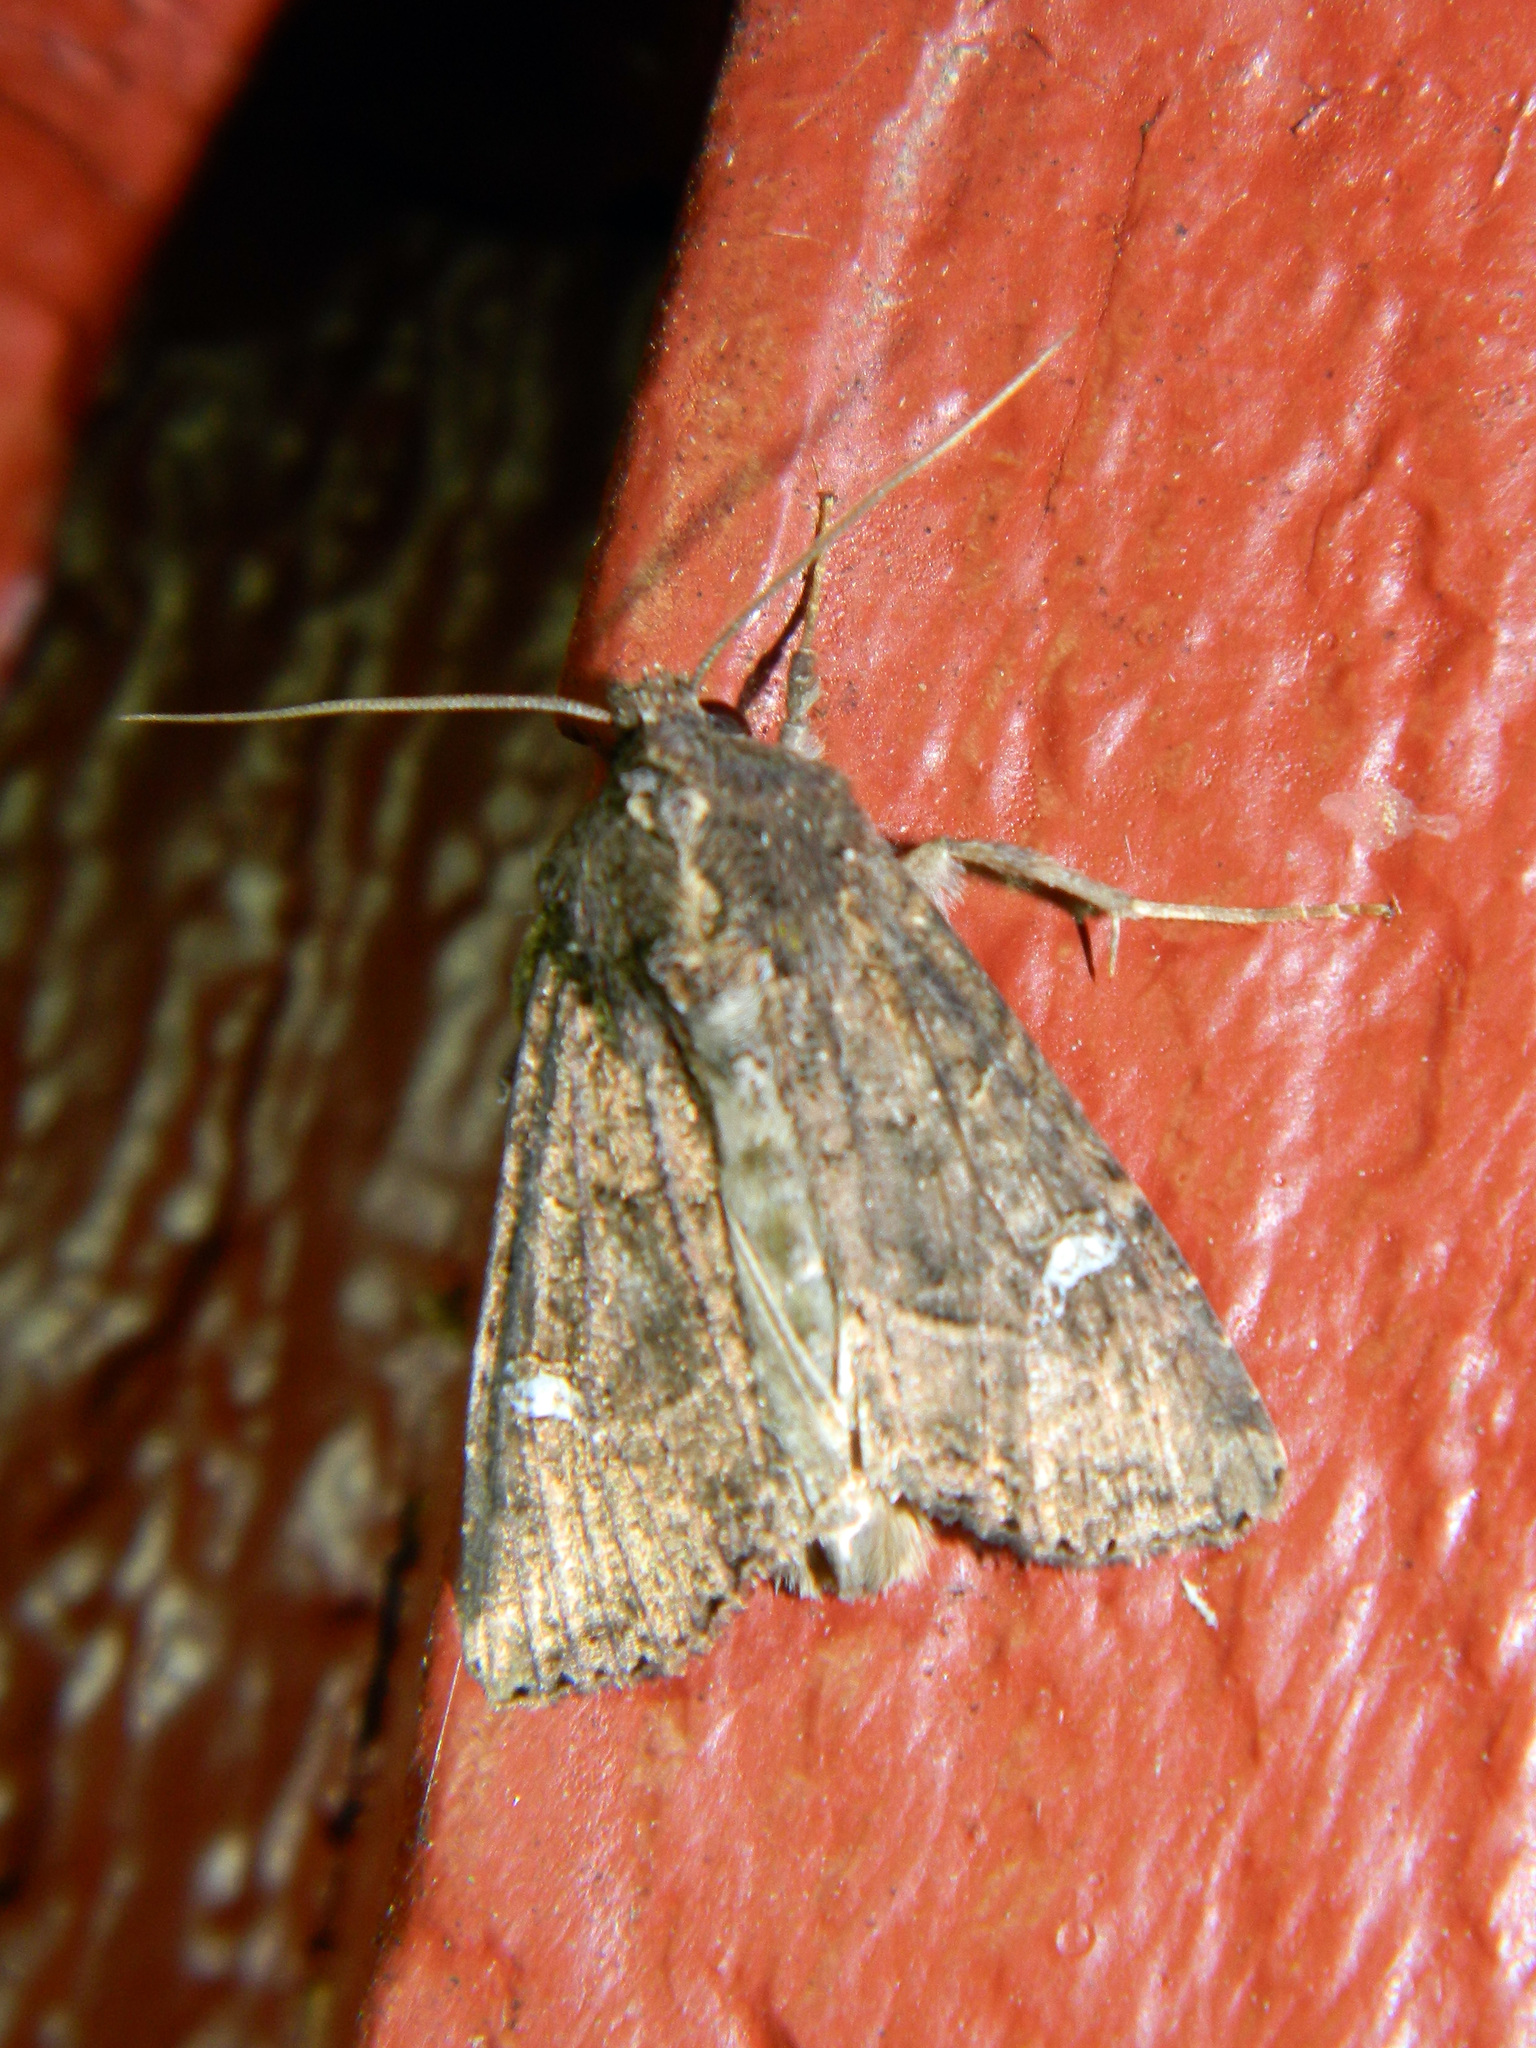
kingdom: Animalia
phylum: Arthropoda
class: Insecta
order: Lepidoptera
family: Noctuidae
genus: Helotropha
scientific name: Helotropha reniformis
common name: Kidney-spotted rustic moth
